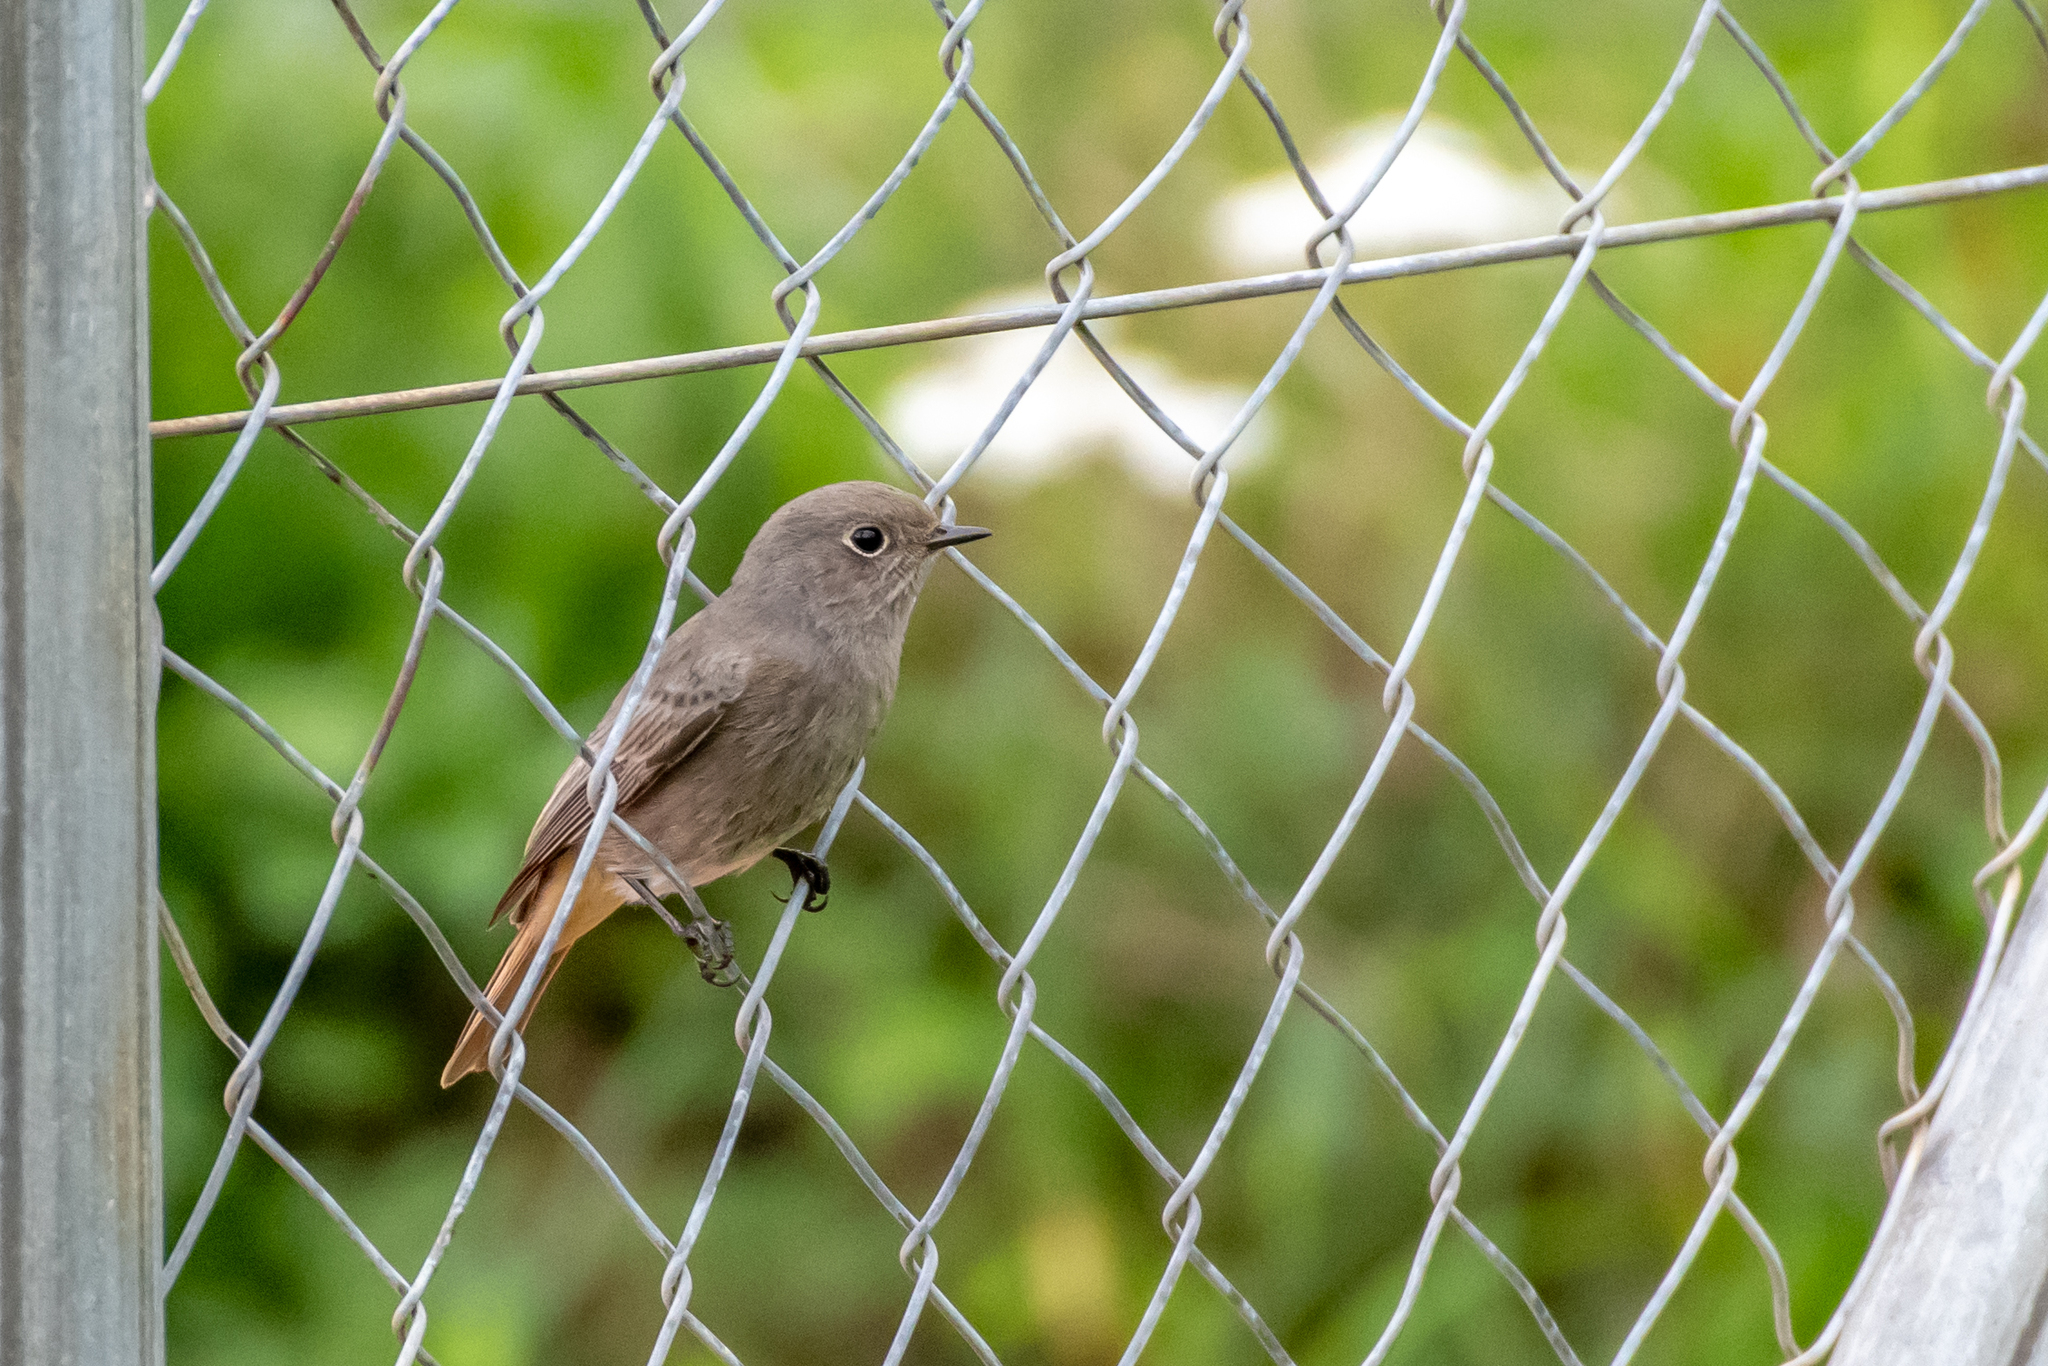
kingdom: Animalia
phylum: Chordata
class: Aves
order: Passeriformes
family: Muscicapidae
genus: Phoenicurus
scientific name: Phoenicurus ochruros
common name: Black redstart
